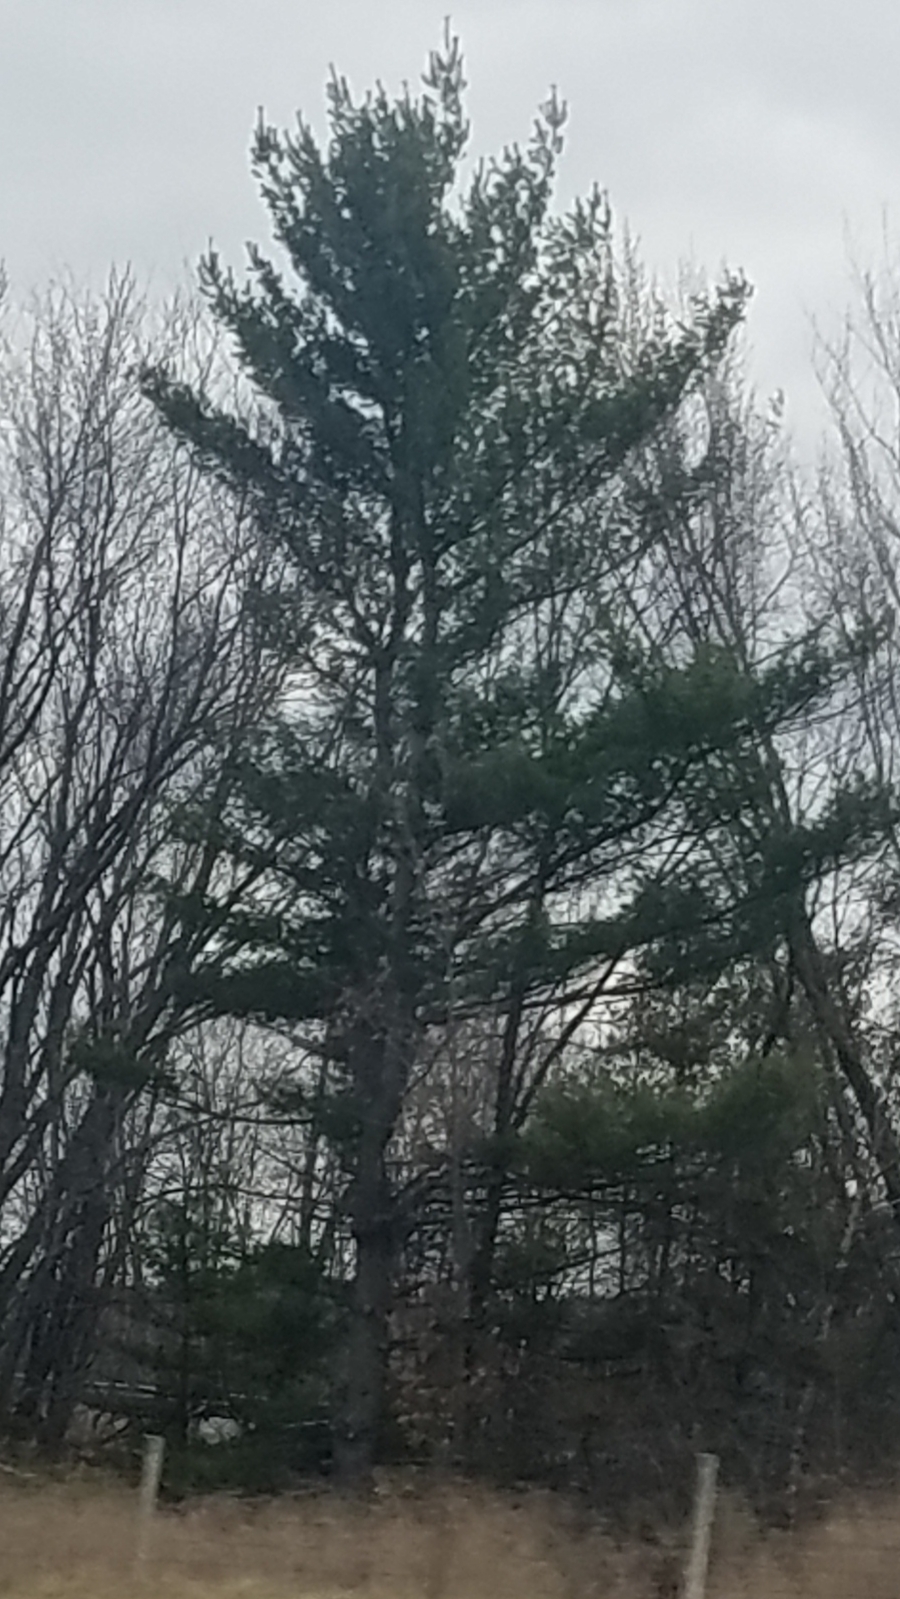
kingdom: Plantae
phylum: Tracheophyta
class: Pinopsida
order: Pinales
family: Pinaceae
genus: Pinus
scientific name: Pinus strobus
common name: Weymouth pine
